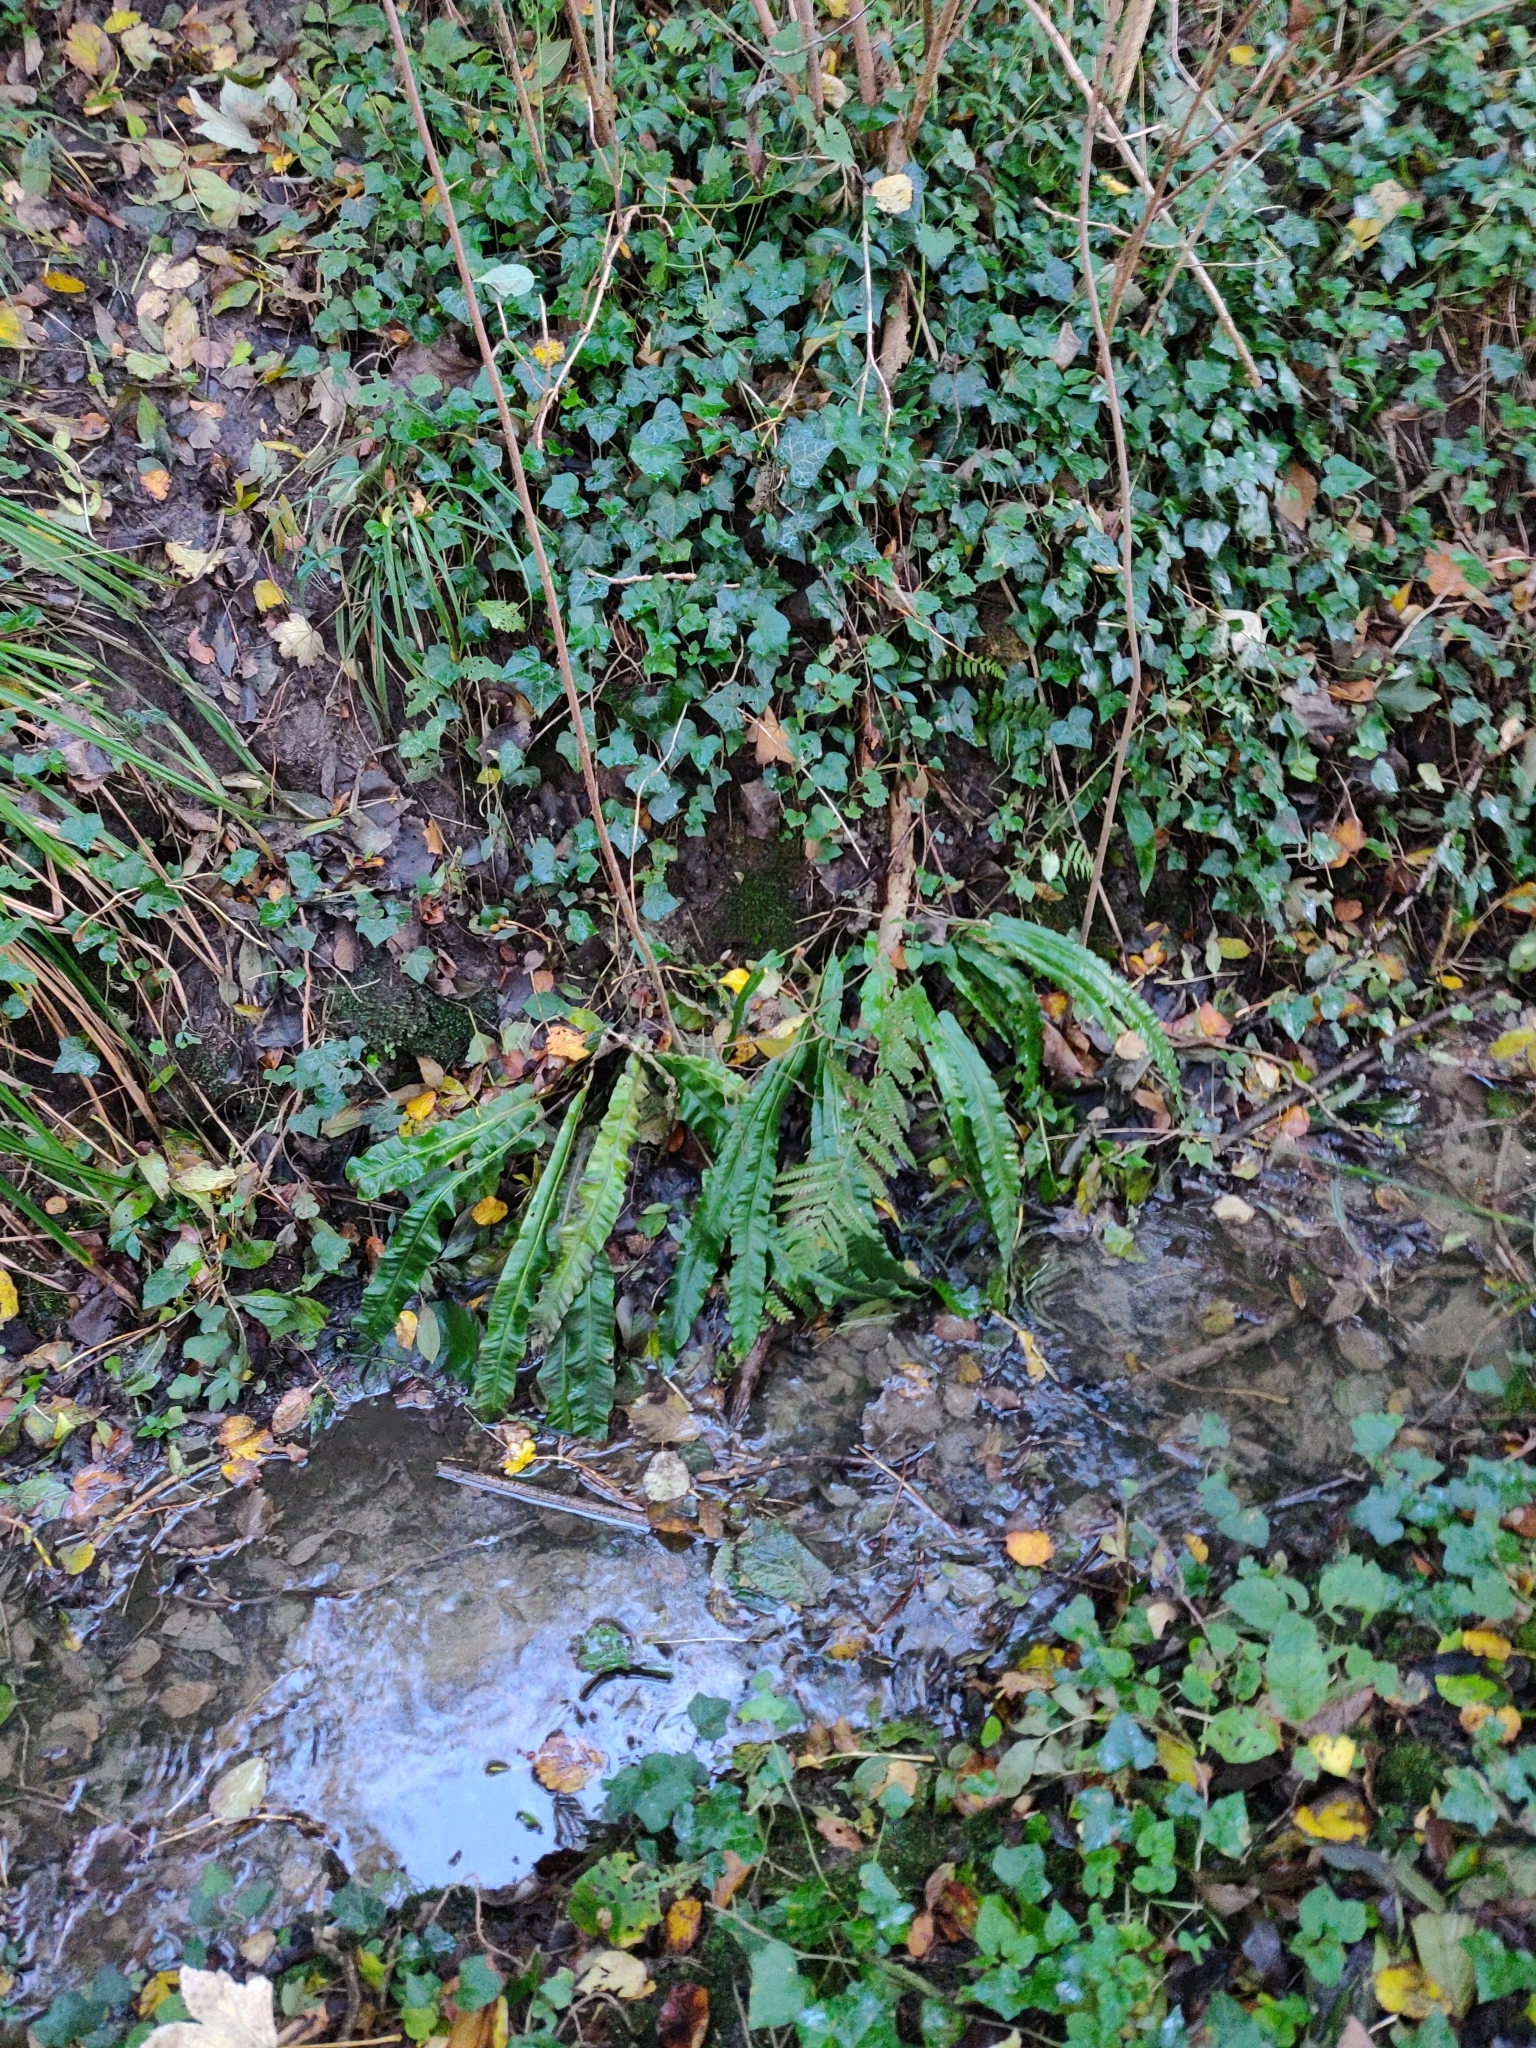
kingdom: Plantae
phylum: Tracheophyta
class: Polypodiopsida
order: Polypodiales
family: Aspleniaceae
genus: Asplenium
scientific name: Asplenium scolopendrium
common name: Hart's-tongue fern
